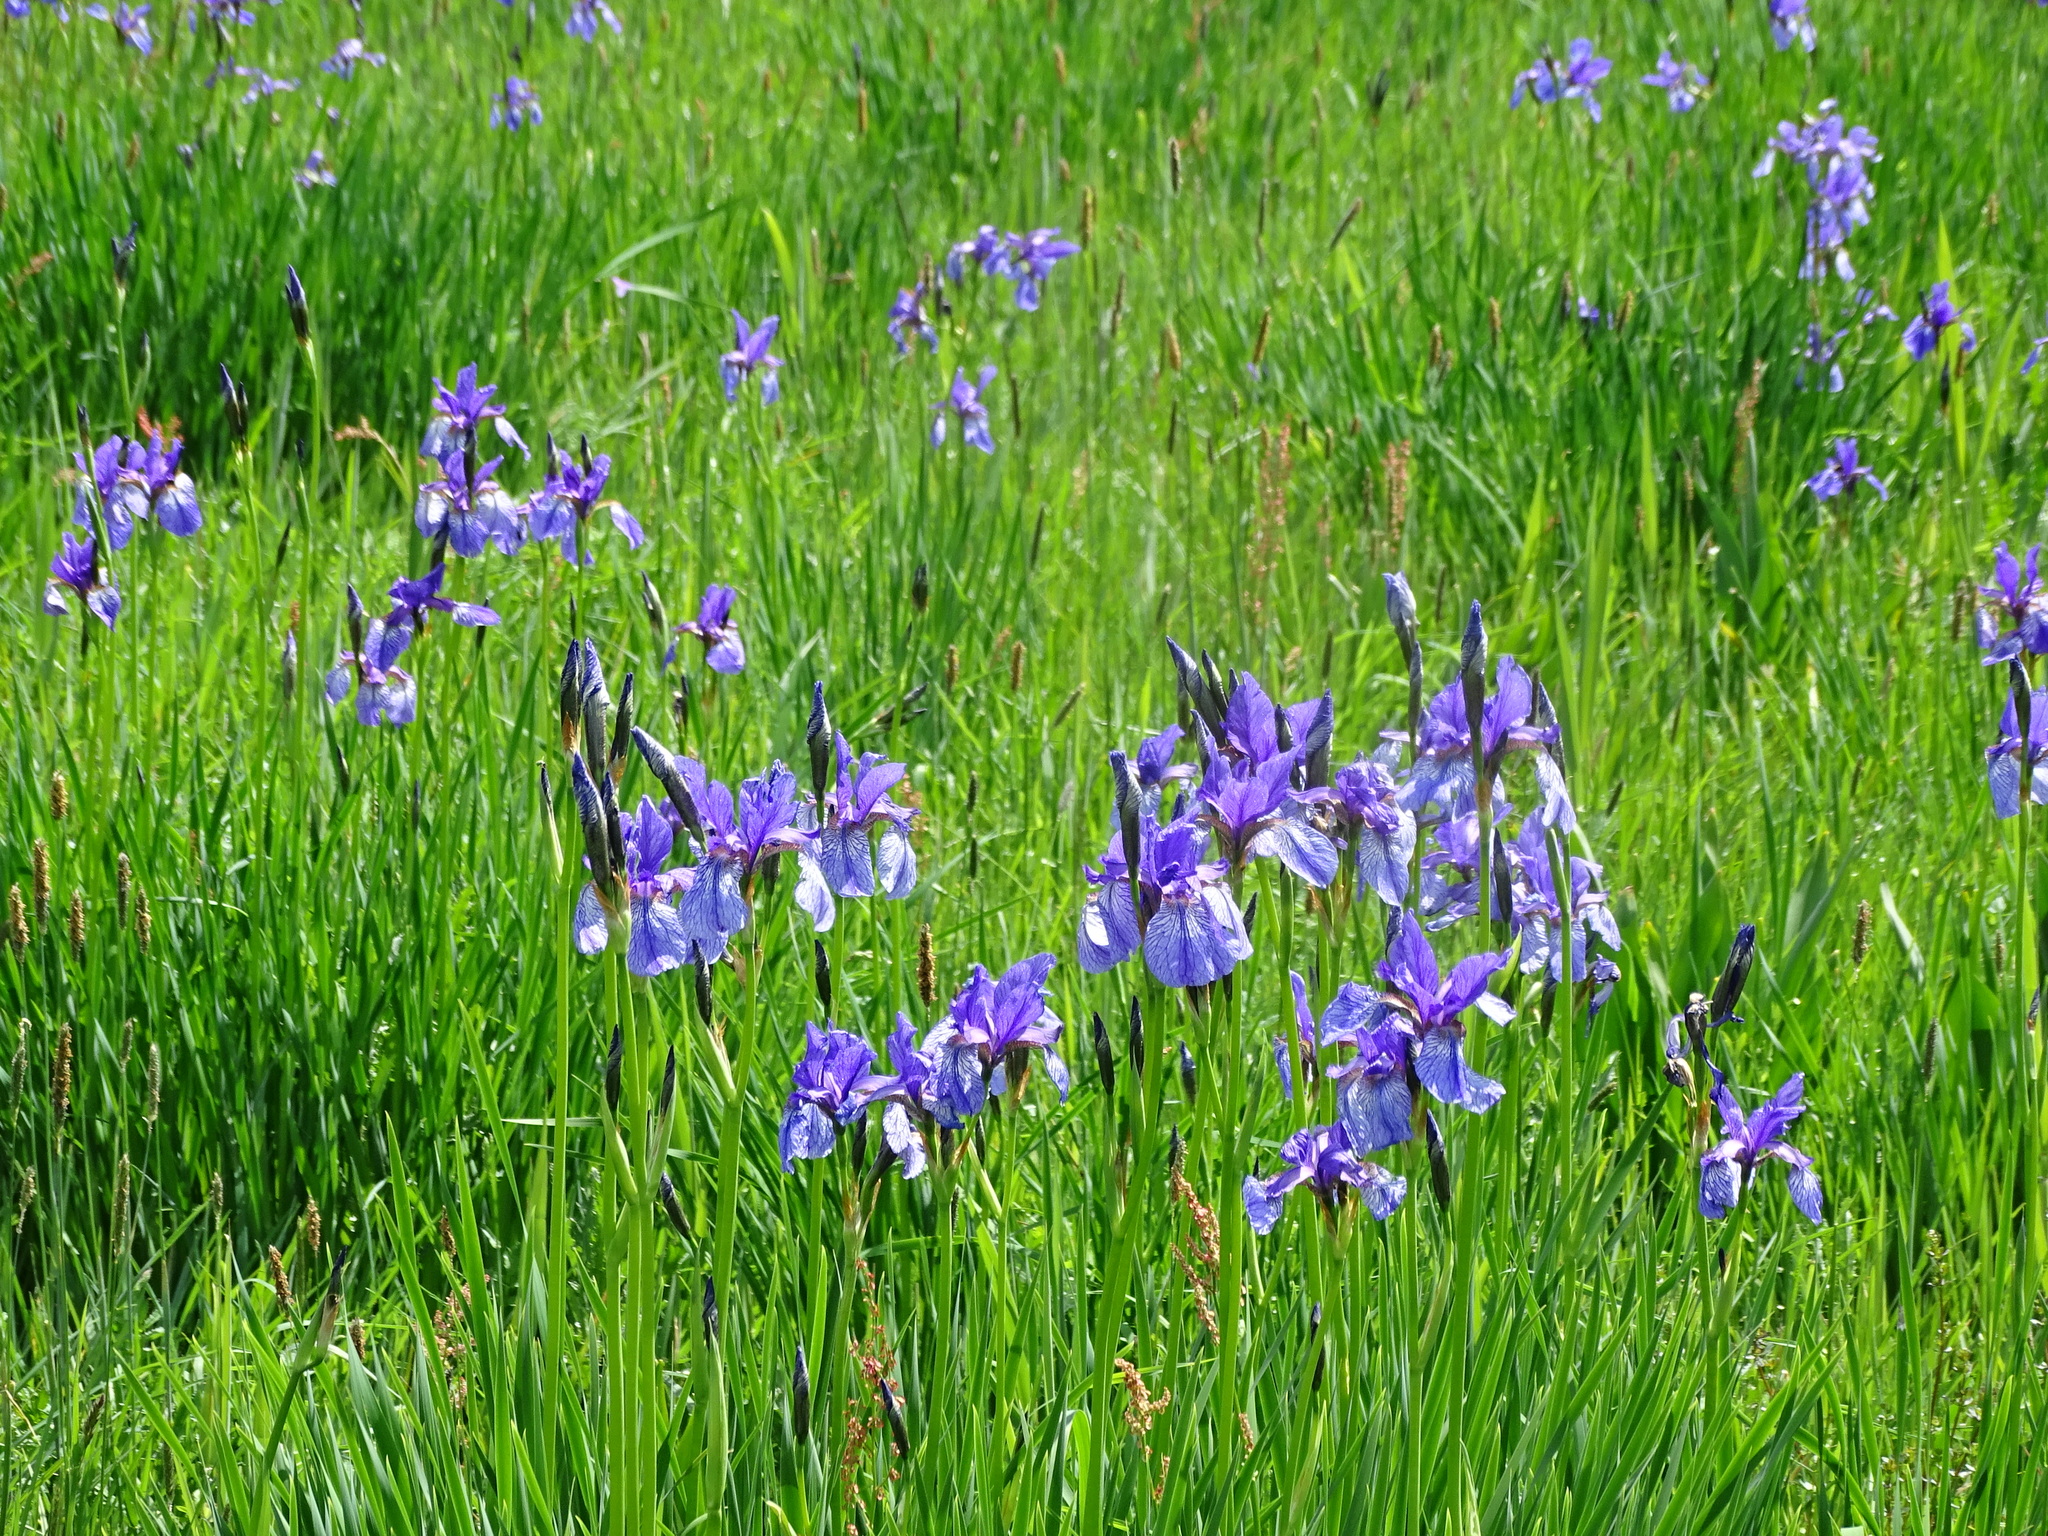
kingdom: Plantae
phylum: Tracheophyta
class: Liliopsida
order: Asparagales
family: Iridaceae
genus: Iris
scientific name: Iris sibirica
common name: Siberian iris
